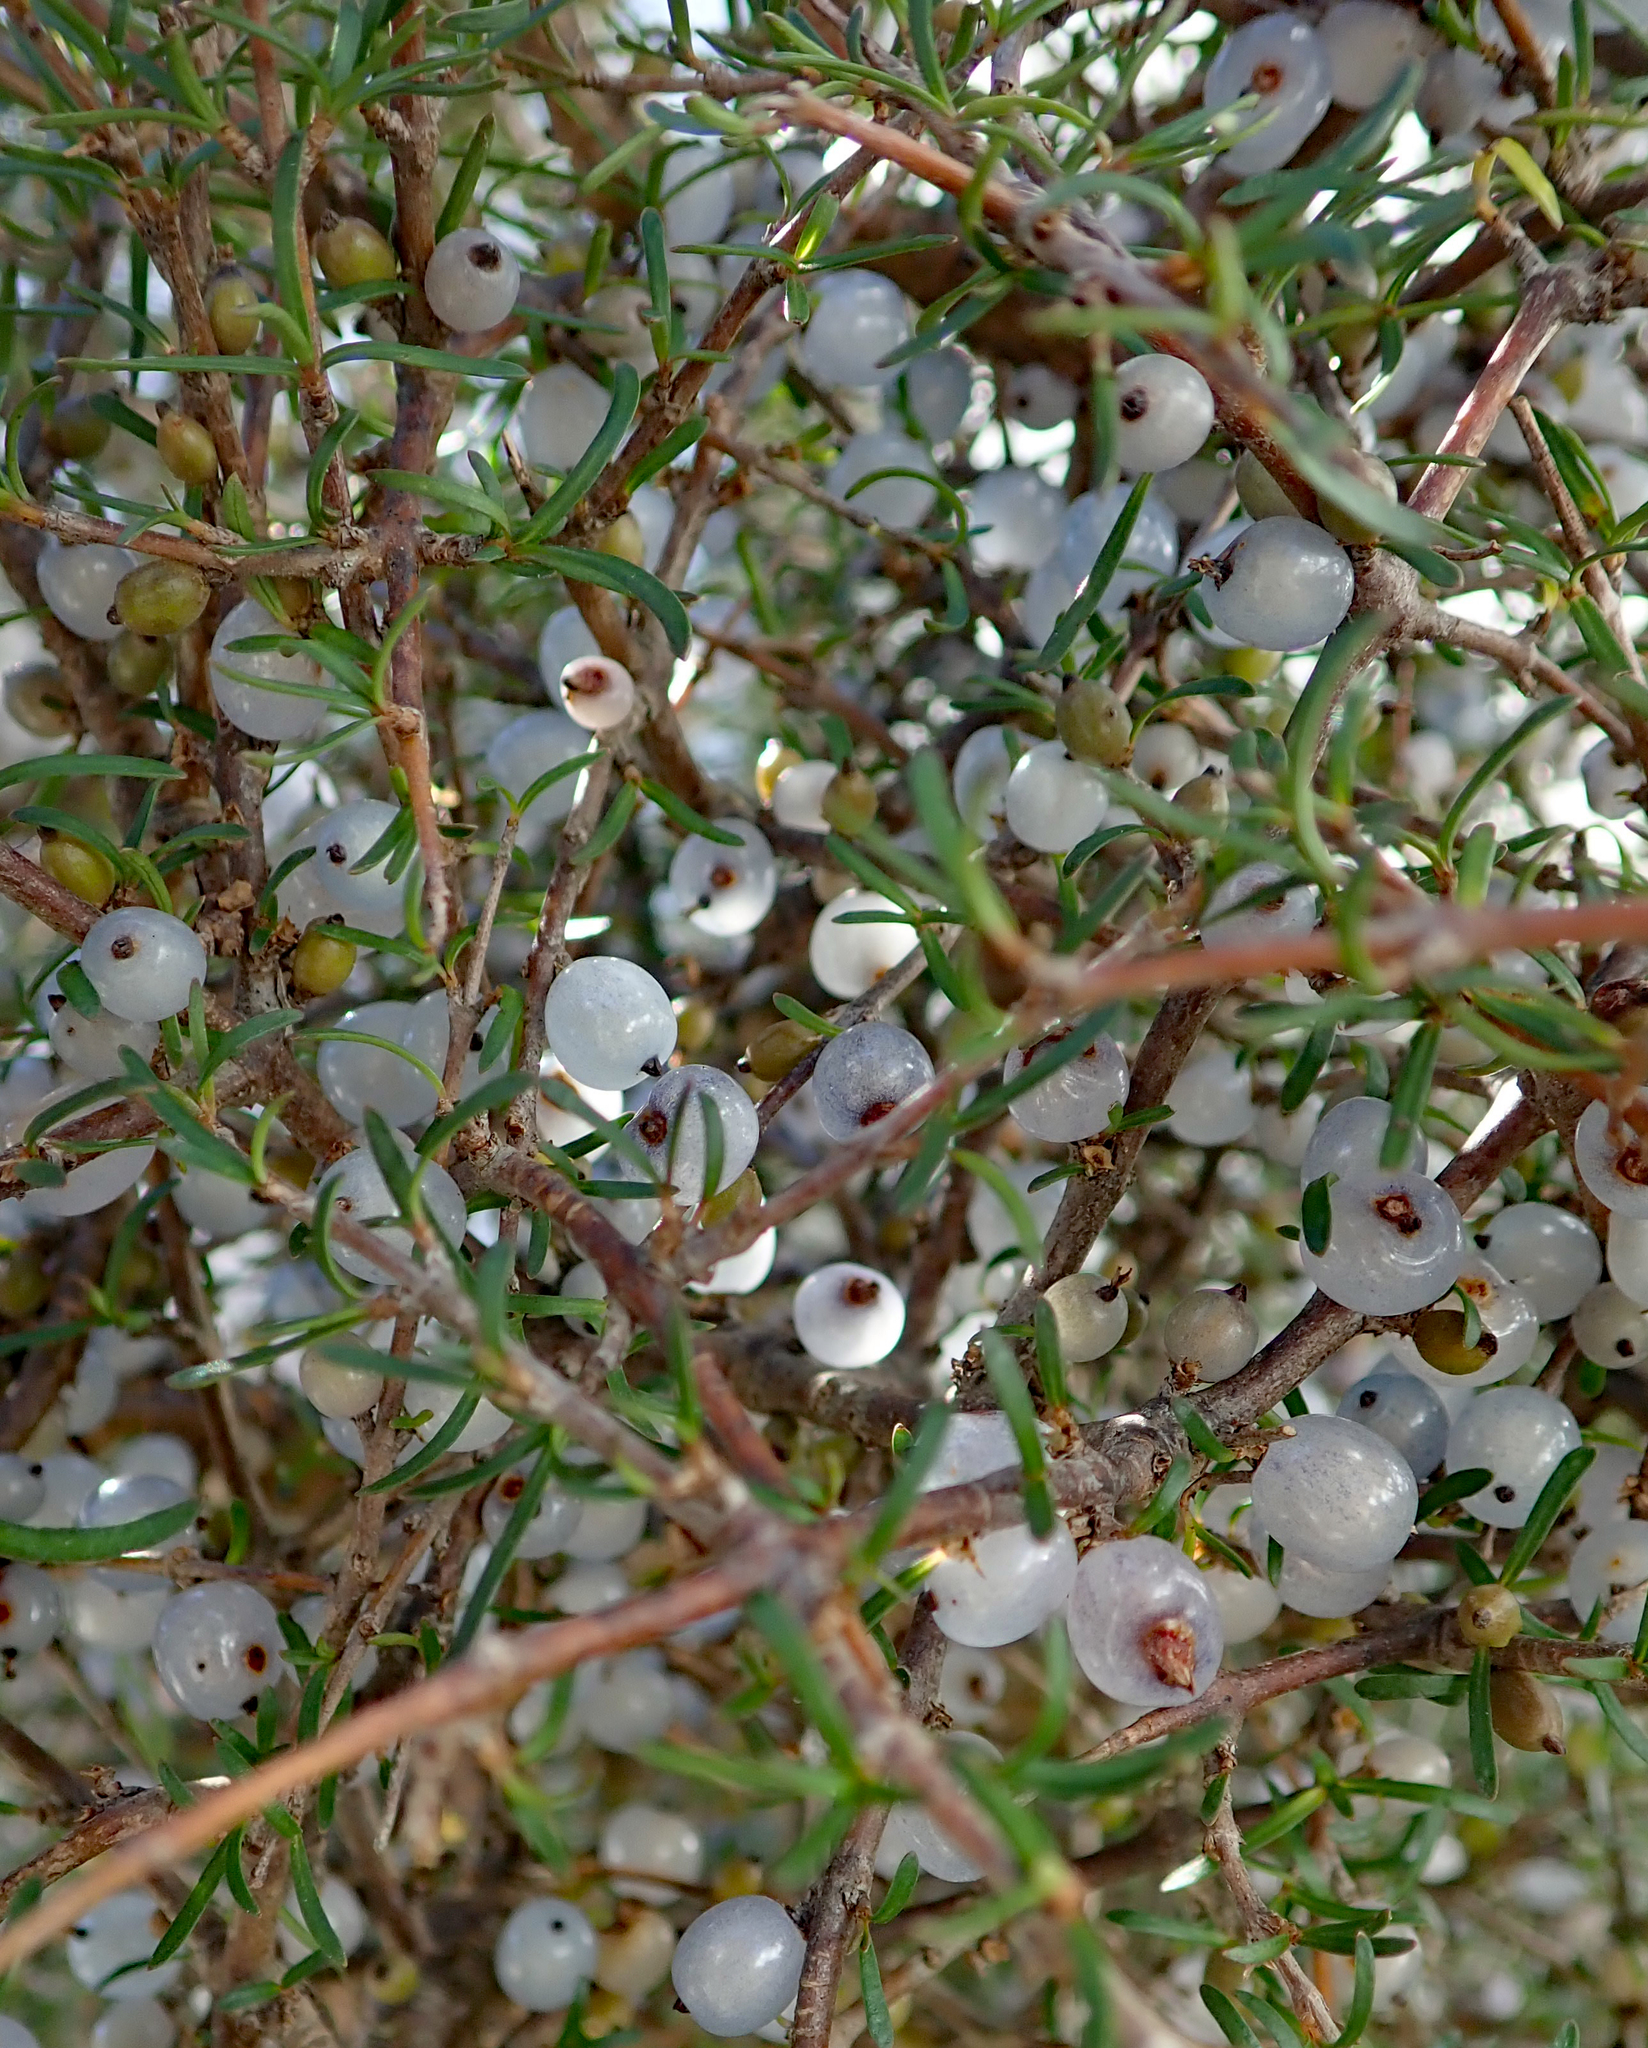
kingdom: Plantae
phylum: Tracheophyta
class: Magnoliopsida
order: Gentianales
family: Rubiaceae
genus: Coprosma
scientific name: Coprosma rugosa
